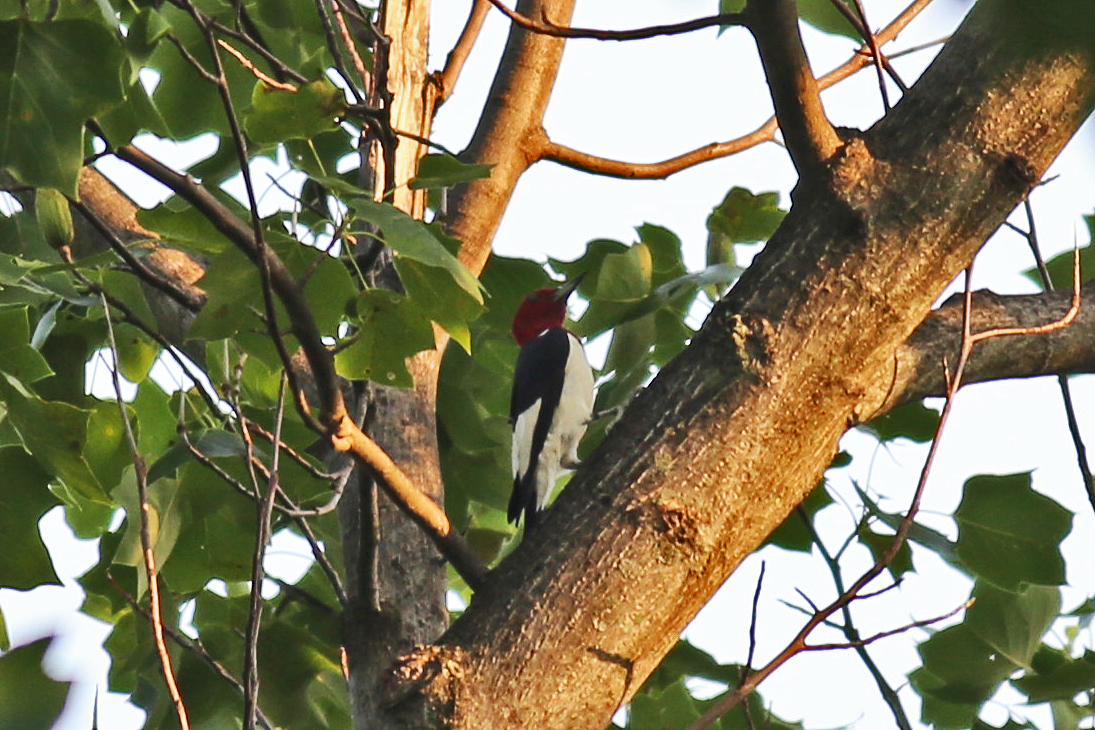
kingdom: Animalia
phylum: Chordata
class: Aves
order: Piciformes
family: Picidae
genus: Melanerpes
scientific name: Melanerpes erythrocephalus
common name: Red-headed woodpecker
